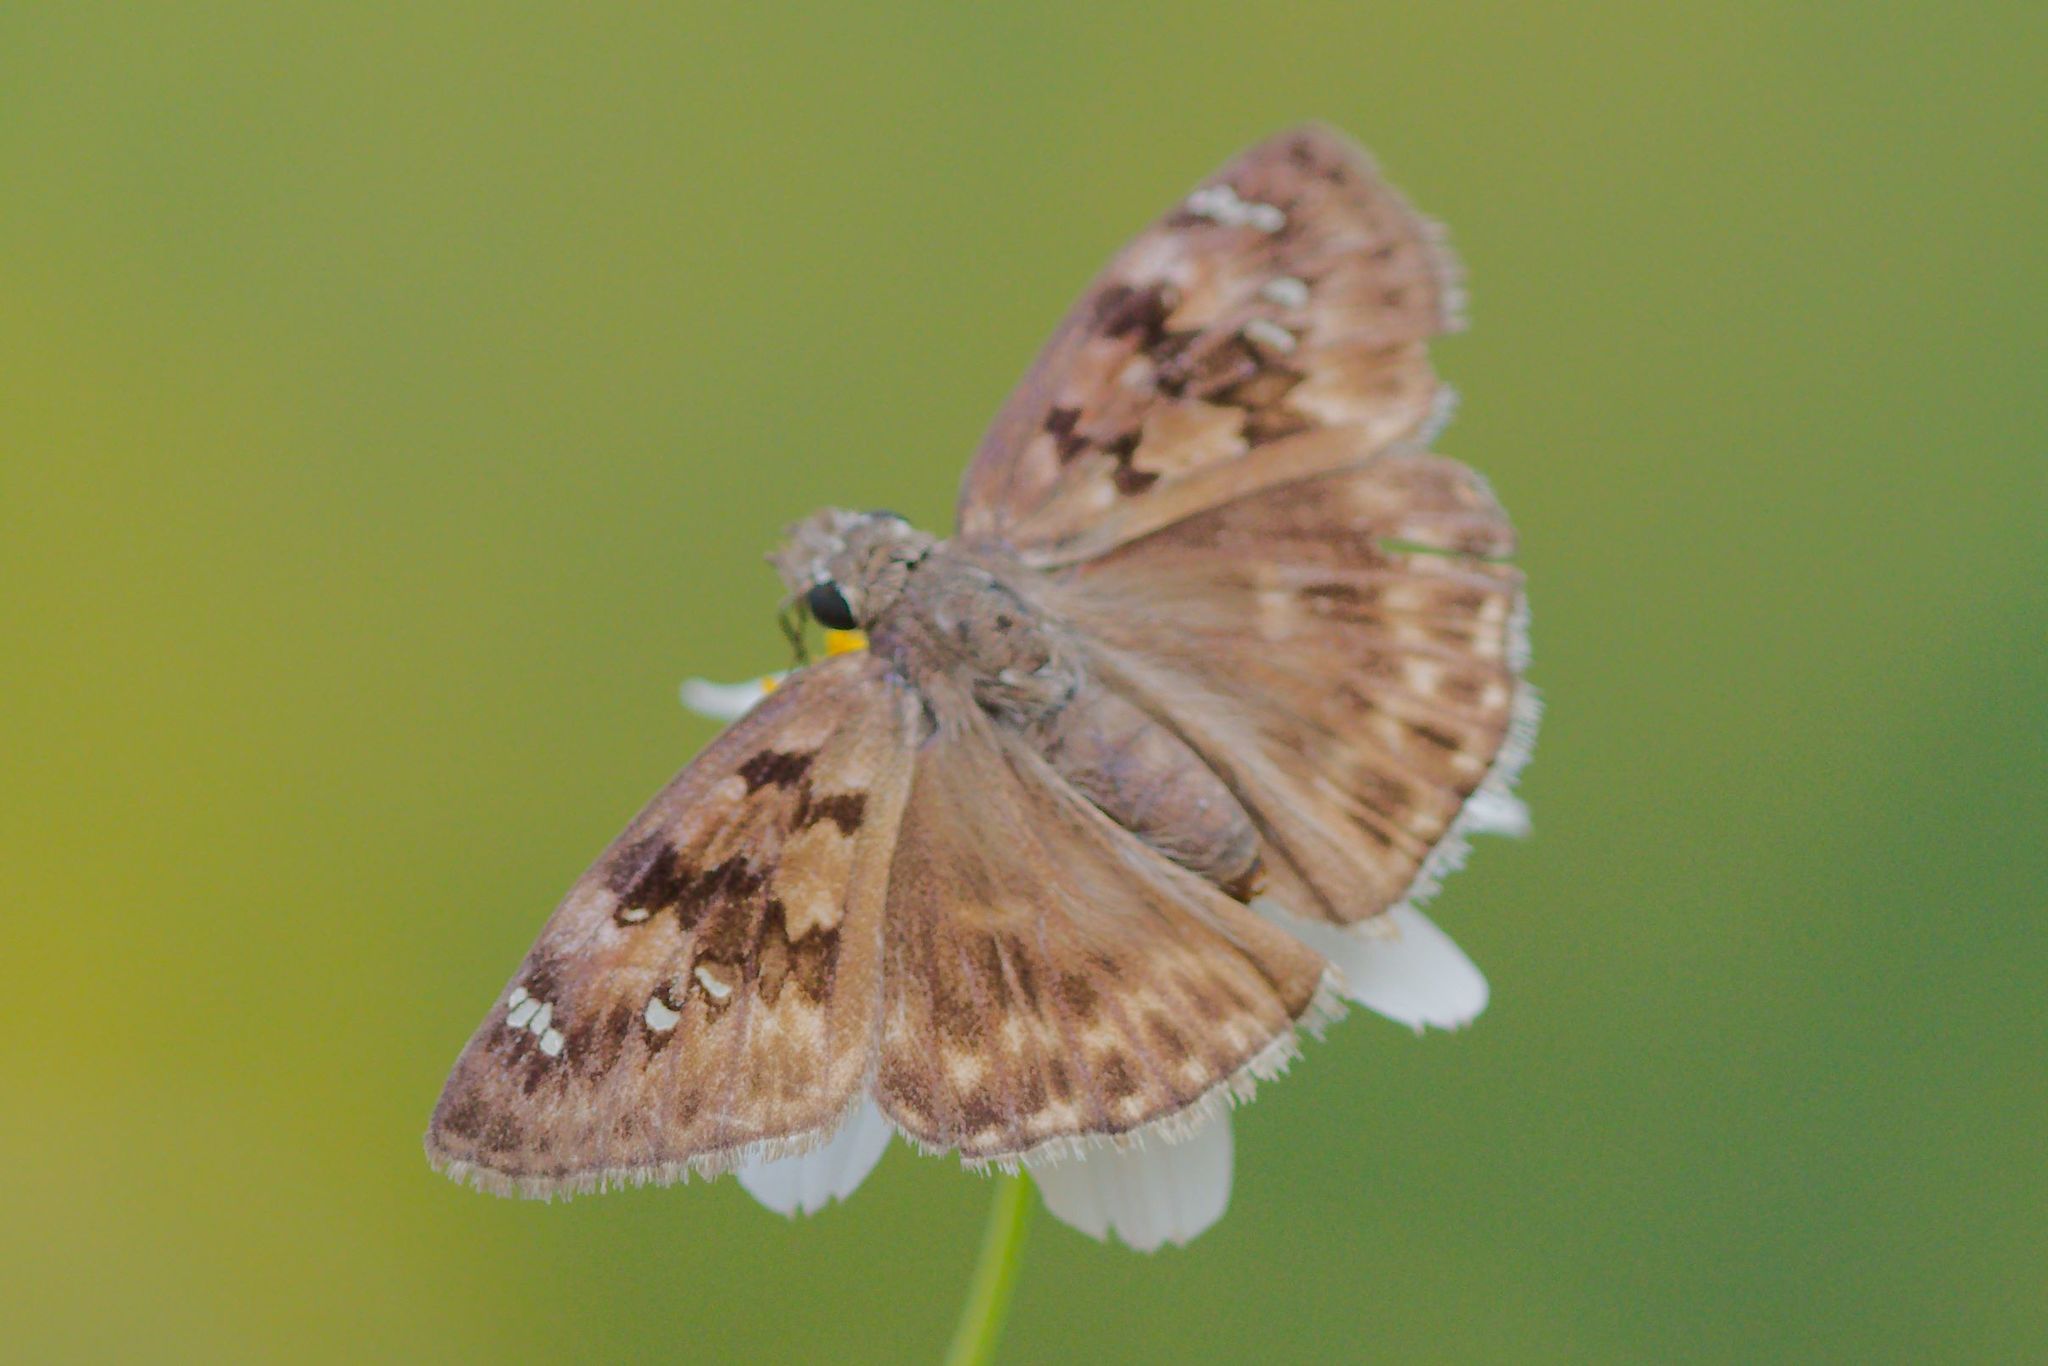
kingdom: Animalia
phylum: Arthropoda
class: Insecta
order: Lepidoptera
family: Hesperiidae
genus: Erynnis
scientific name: Erynnis horatius
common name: Horace's duskywing
